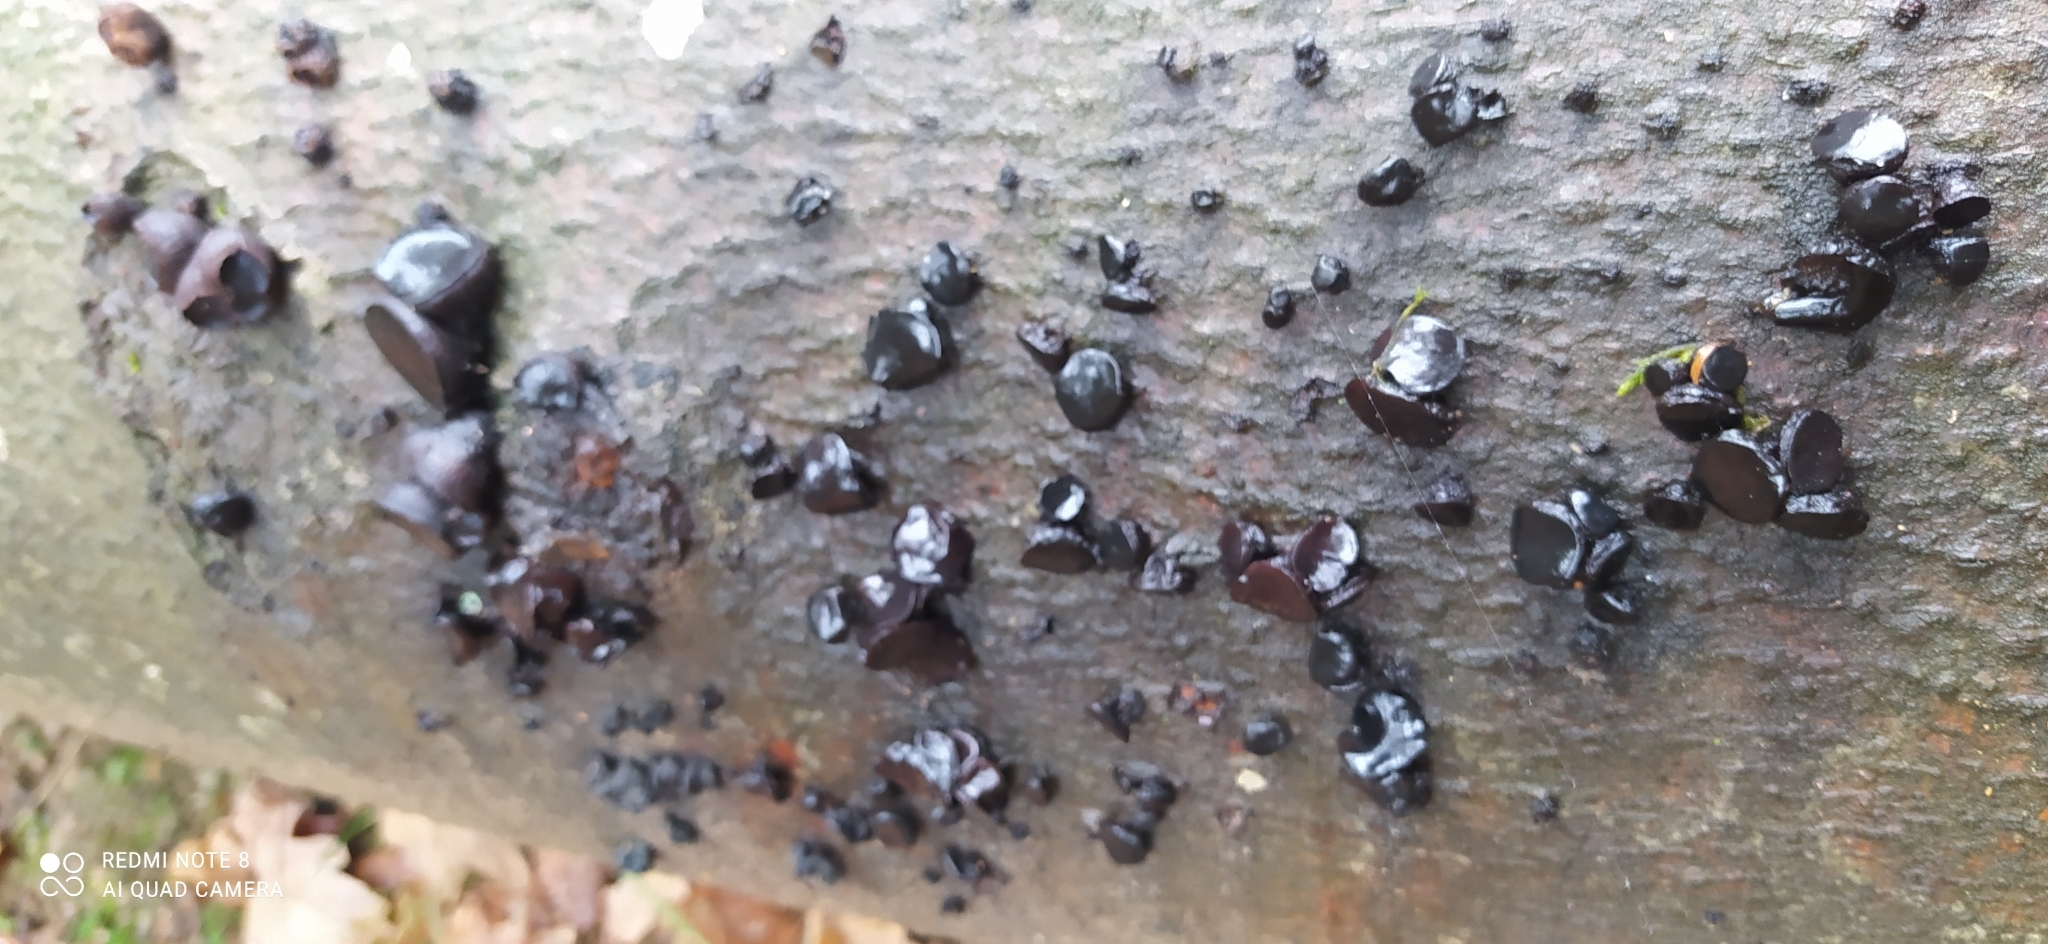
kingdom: Fungi
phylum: Ascomycota
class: Leotiomycetes
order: Phacidiales
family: Phacidiaceae
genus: Bulgaria
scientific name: Bulgaria inquinans
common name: Black bulgar
